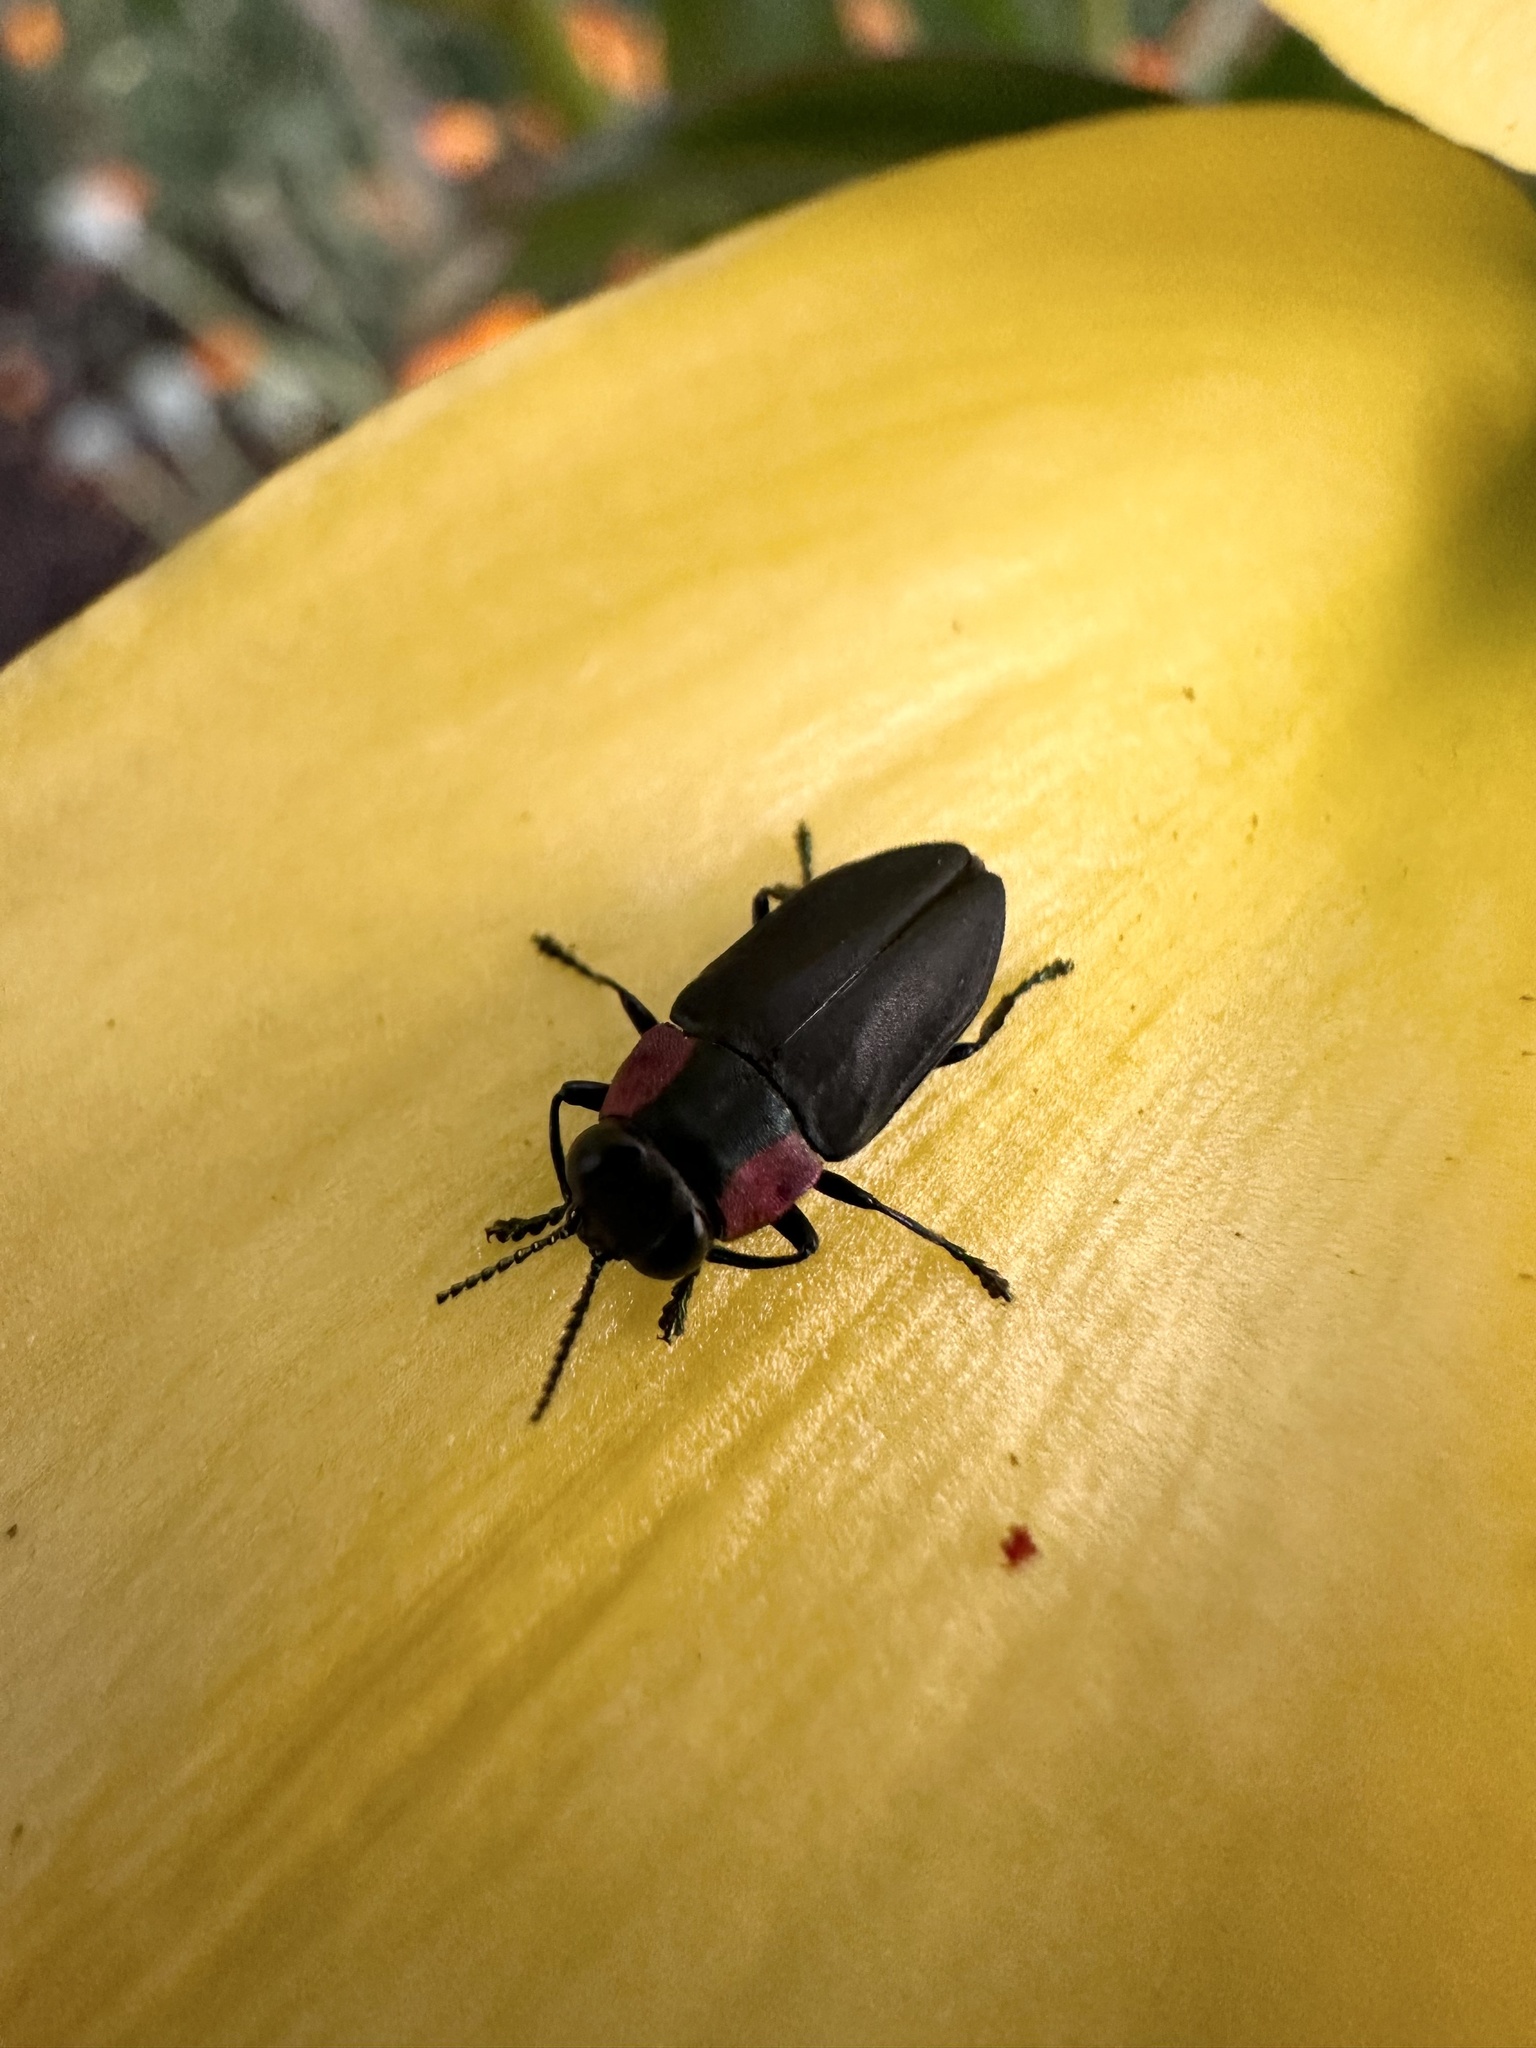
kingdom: Animalia
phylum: Arthropoda
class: Insecta
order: Coleoptera
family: Buprestidae
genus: Romanophora
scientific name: Romanophora verecunda
